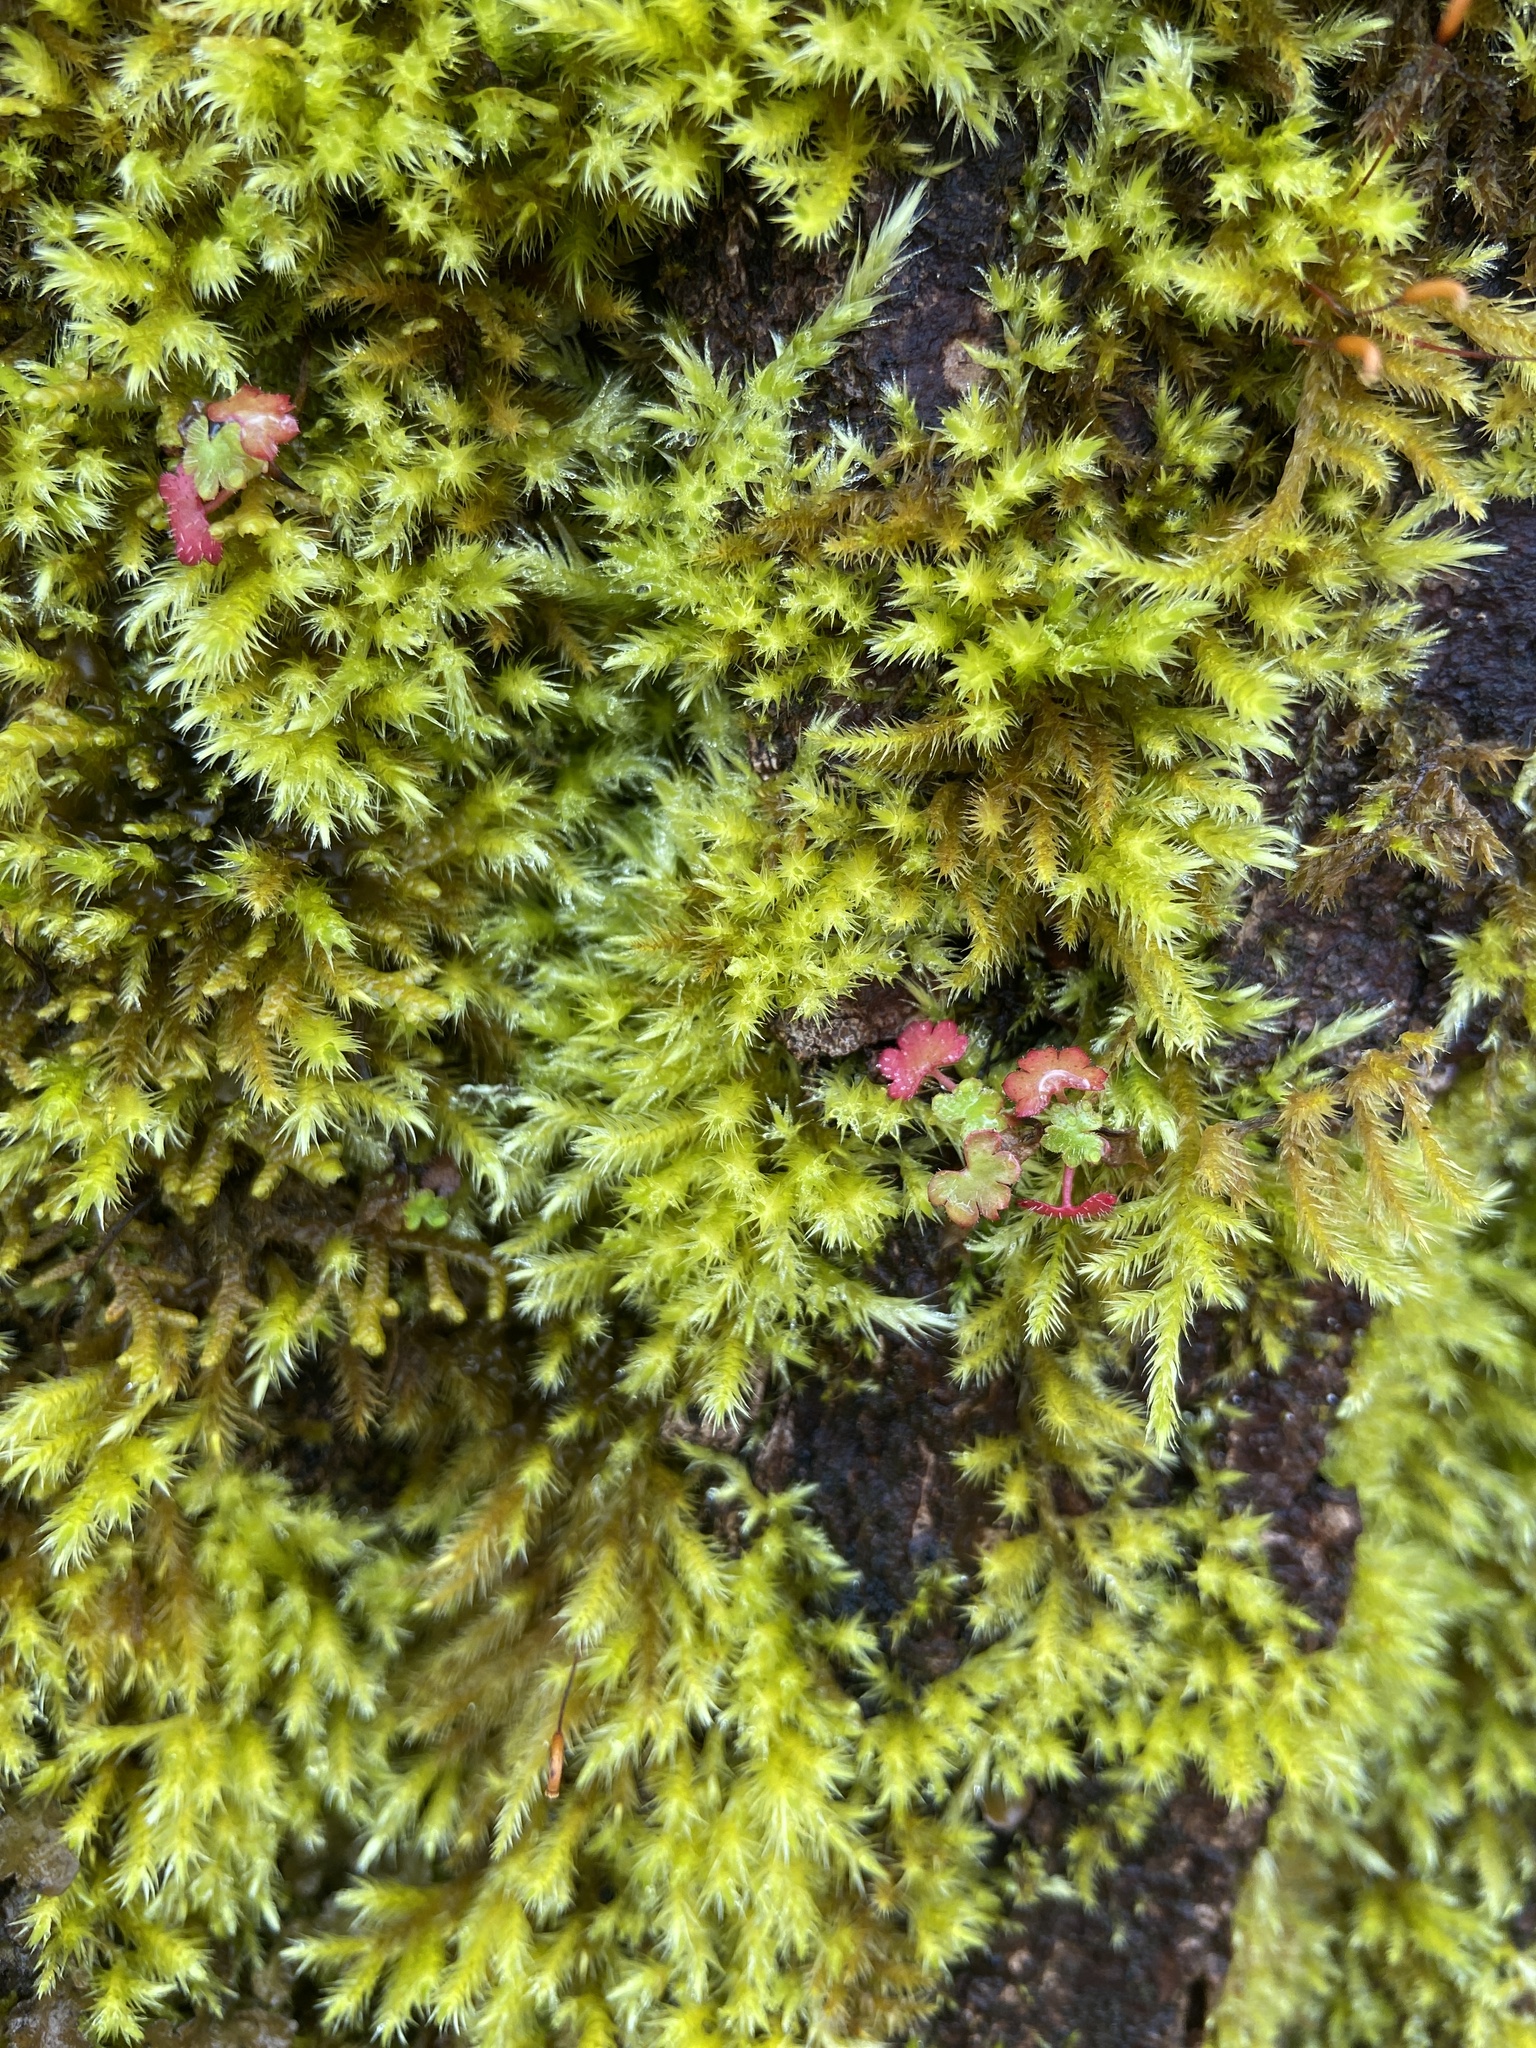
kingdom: Plantae
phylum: Tracheophyta
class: Magnoliopsida
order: Geraniales
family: Geraniaceae
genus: Geranium
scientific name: Geranium lucidum
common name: Shining crane's-bill
